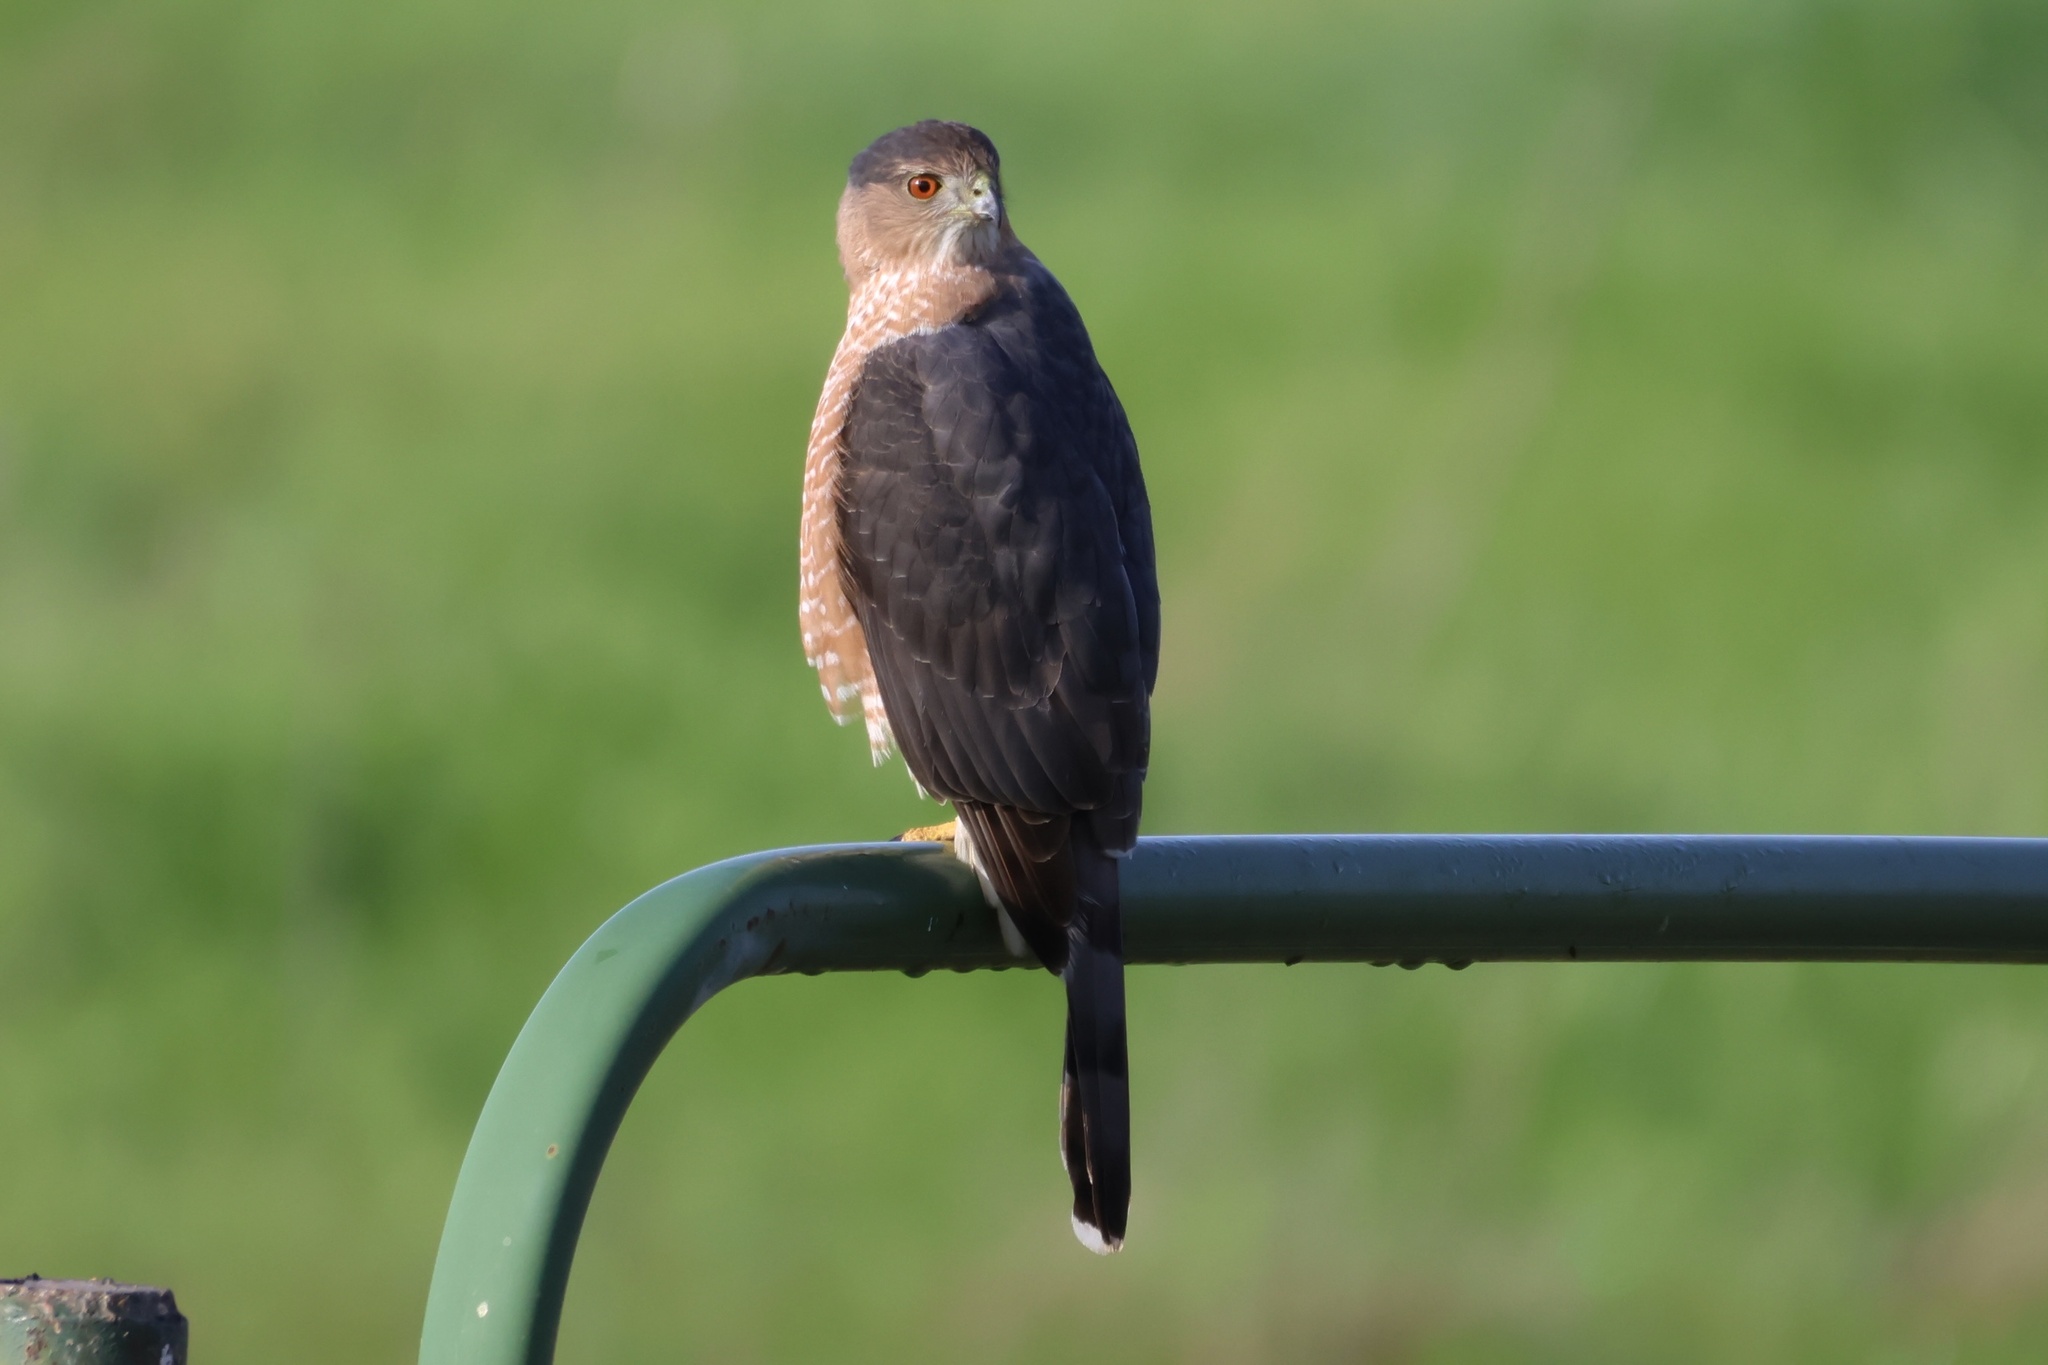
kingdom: Animalia
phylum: Chordata
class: Aves
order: Accipitriformes
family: Accipitridae
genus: Accipiter
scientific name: Accipiter cooperii
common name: Cooper's hawk
